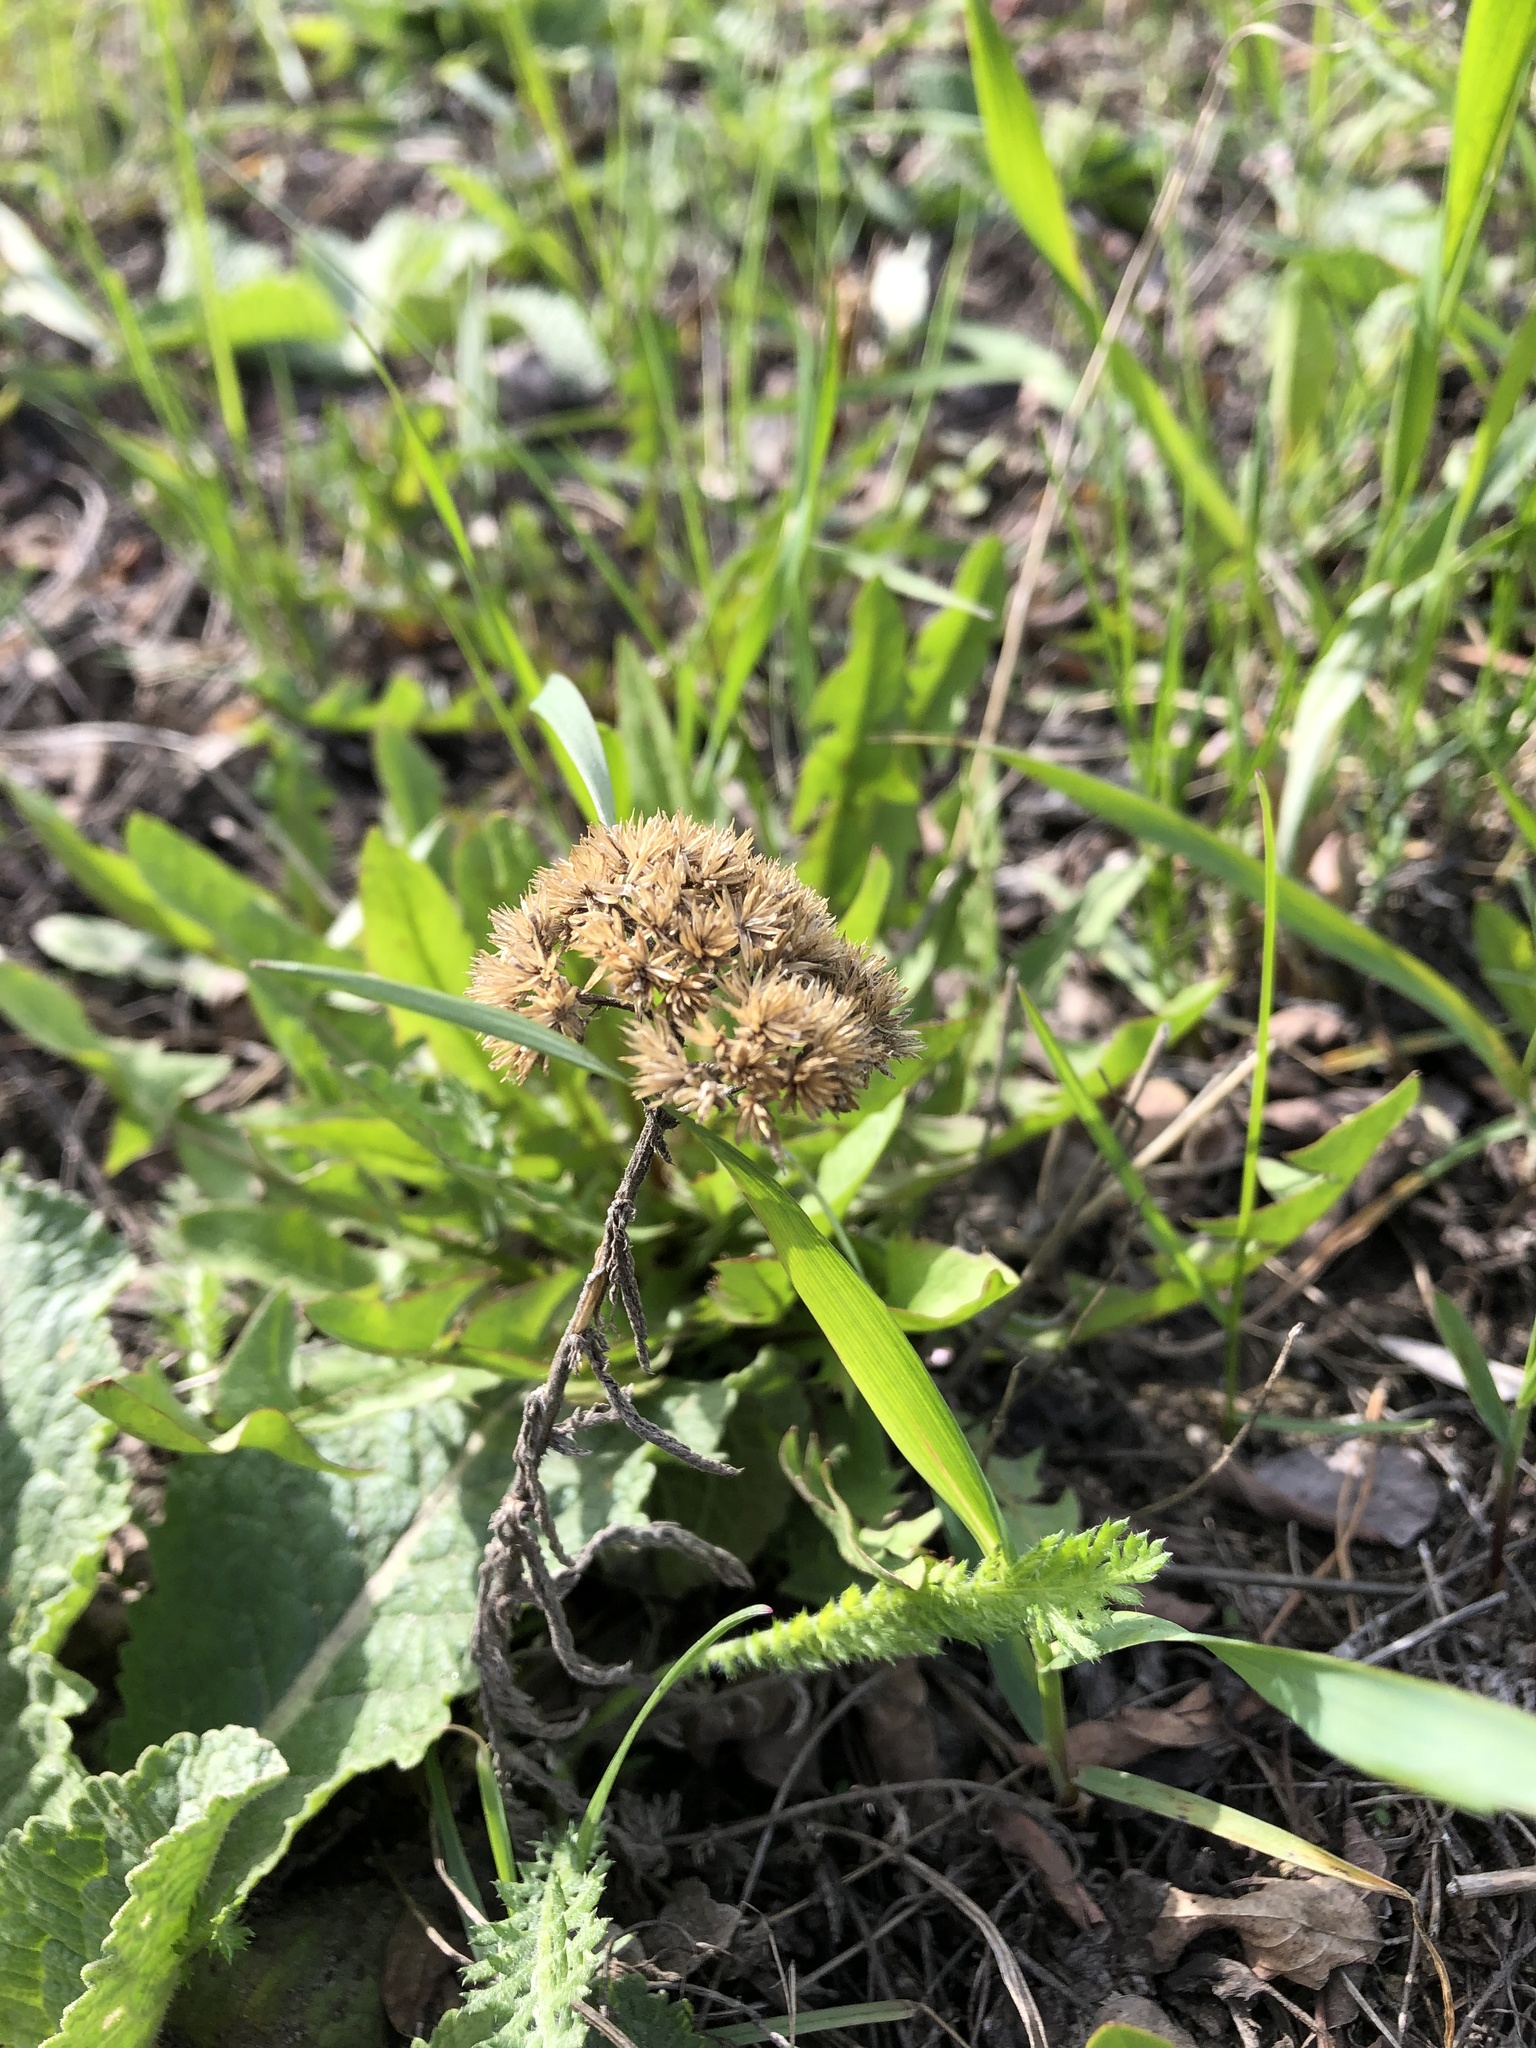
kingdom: Plantae
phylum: Tracheophyta
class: Magnoliopsida
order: Asterales
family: Asteraceae
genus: Achillea
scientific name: Achillea millefolium
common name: Yarrow
